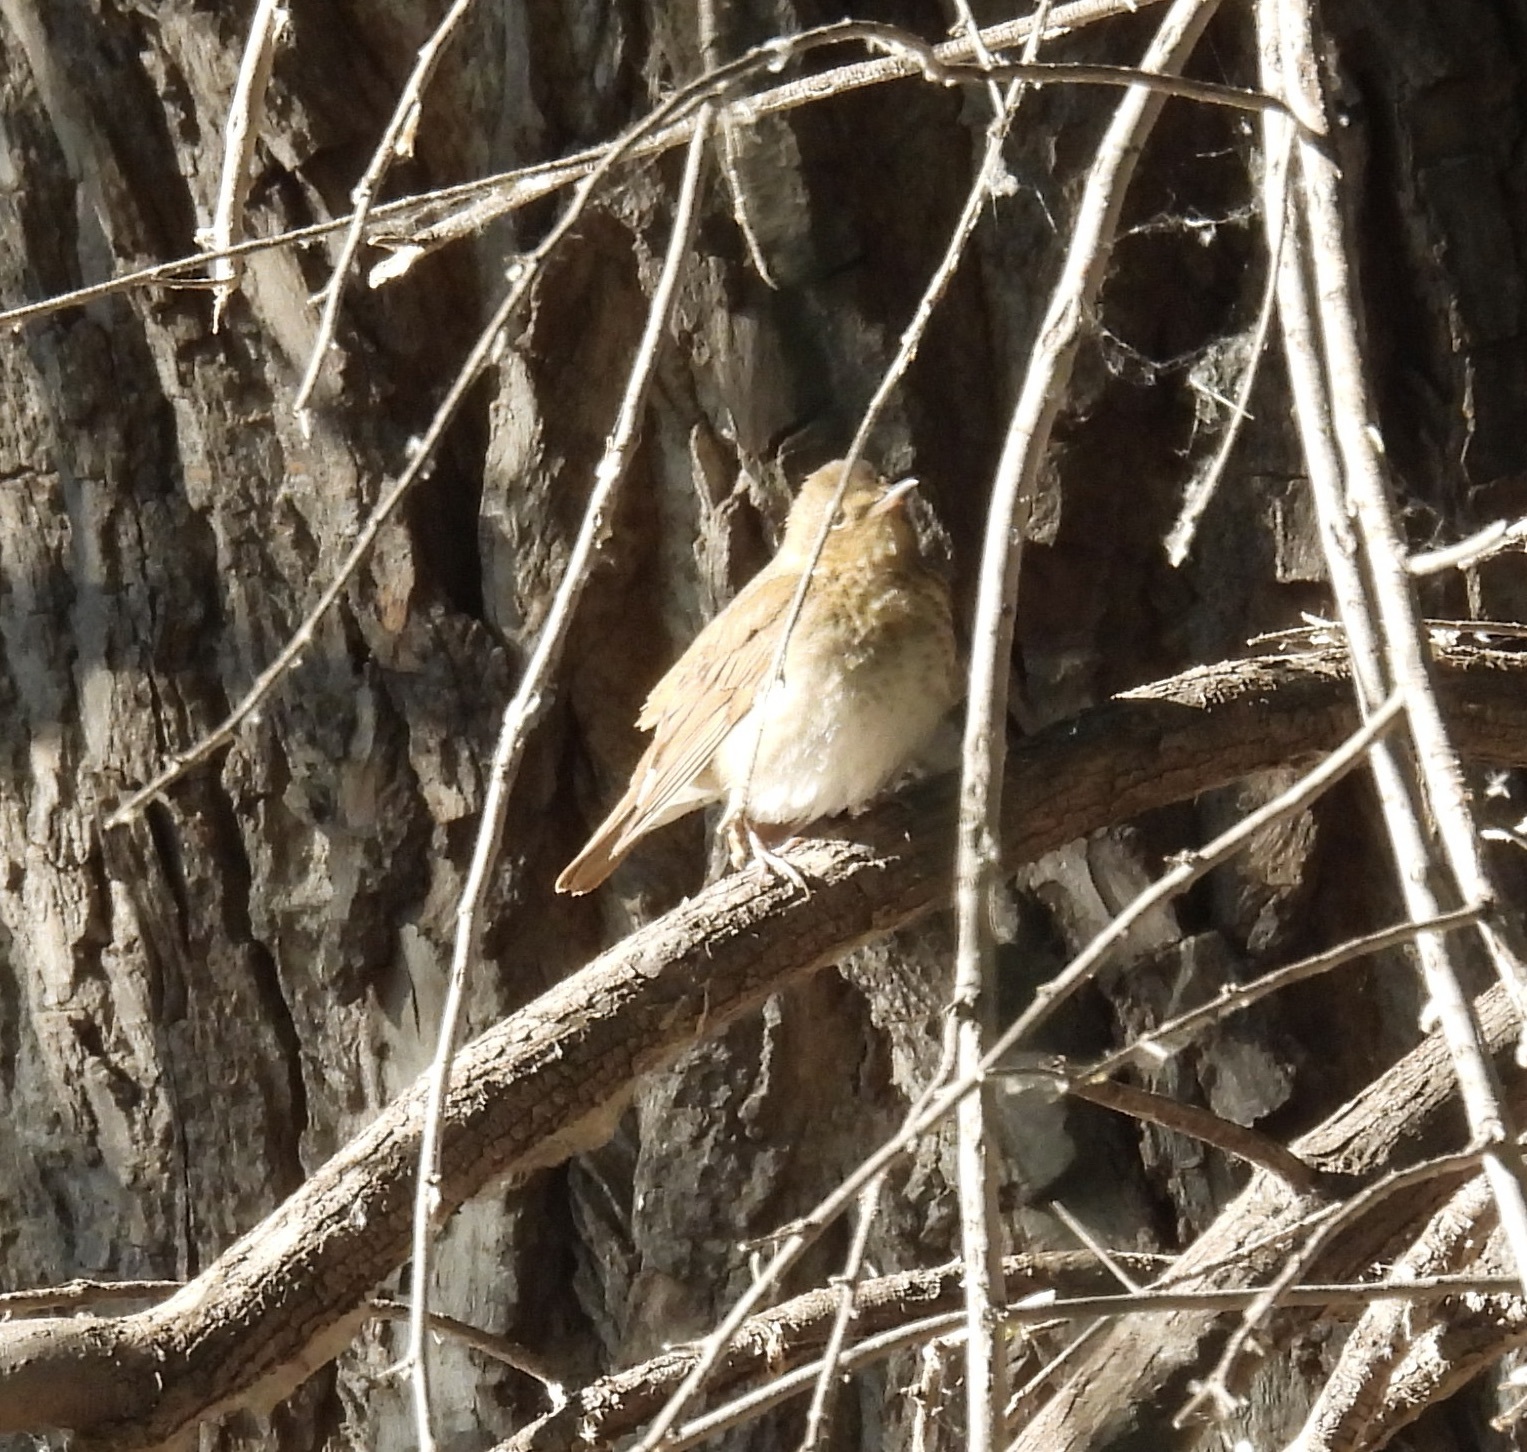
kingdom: Animalia
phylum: Chordata
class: Aves
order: Passeriformes
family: Turdidae
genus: Catharus
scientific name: Catharus fuscescens
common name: Veery
